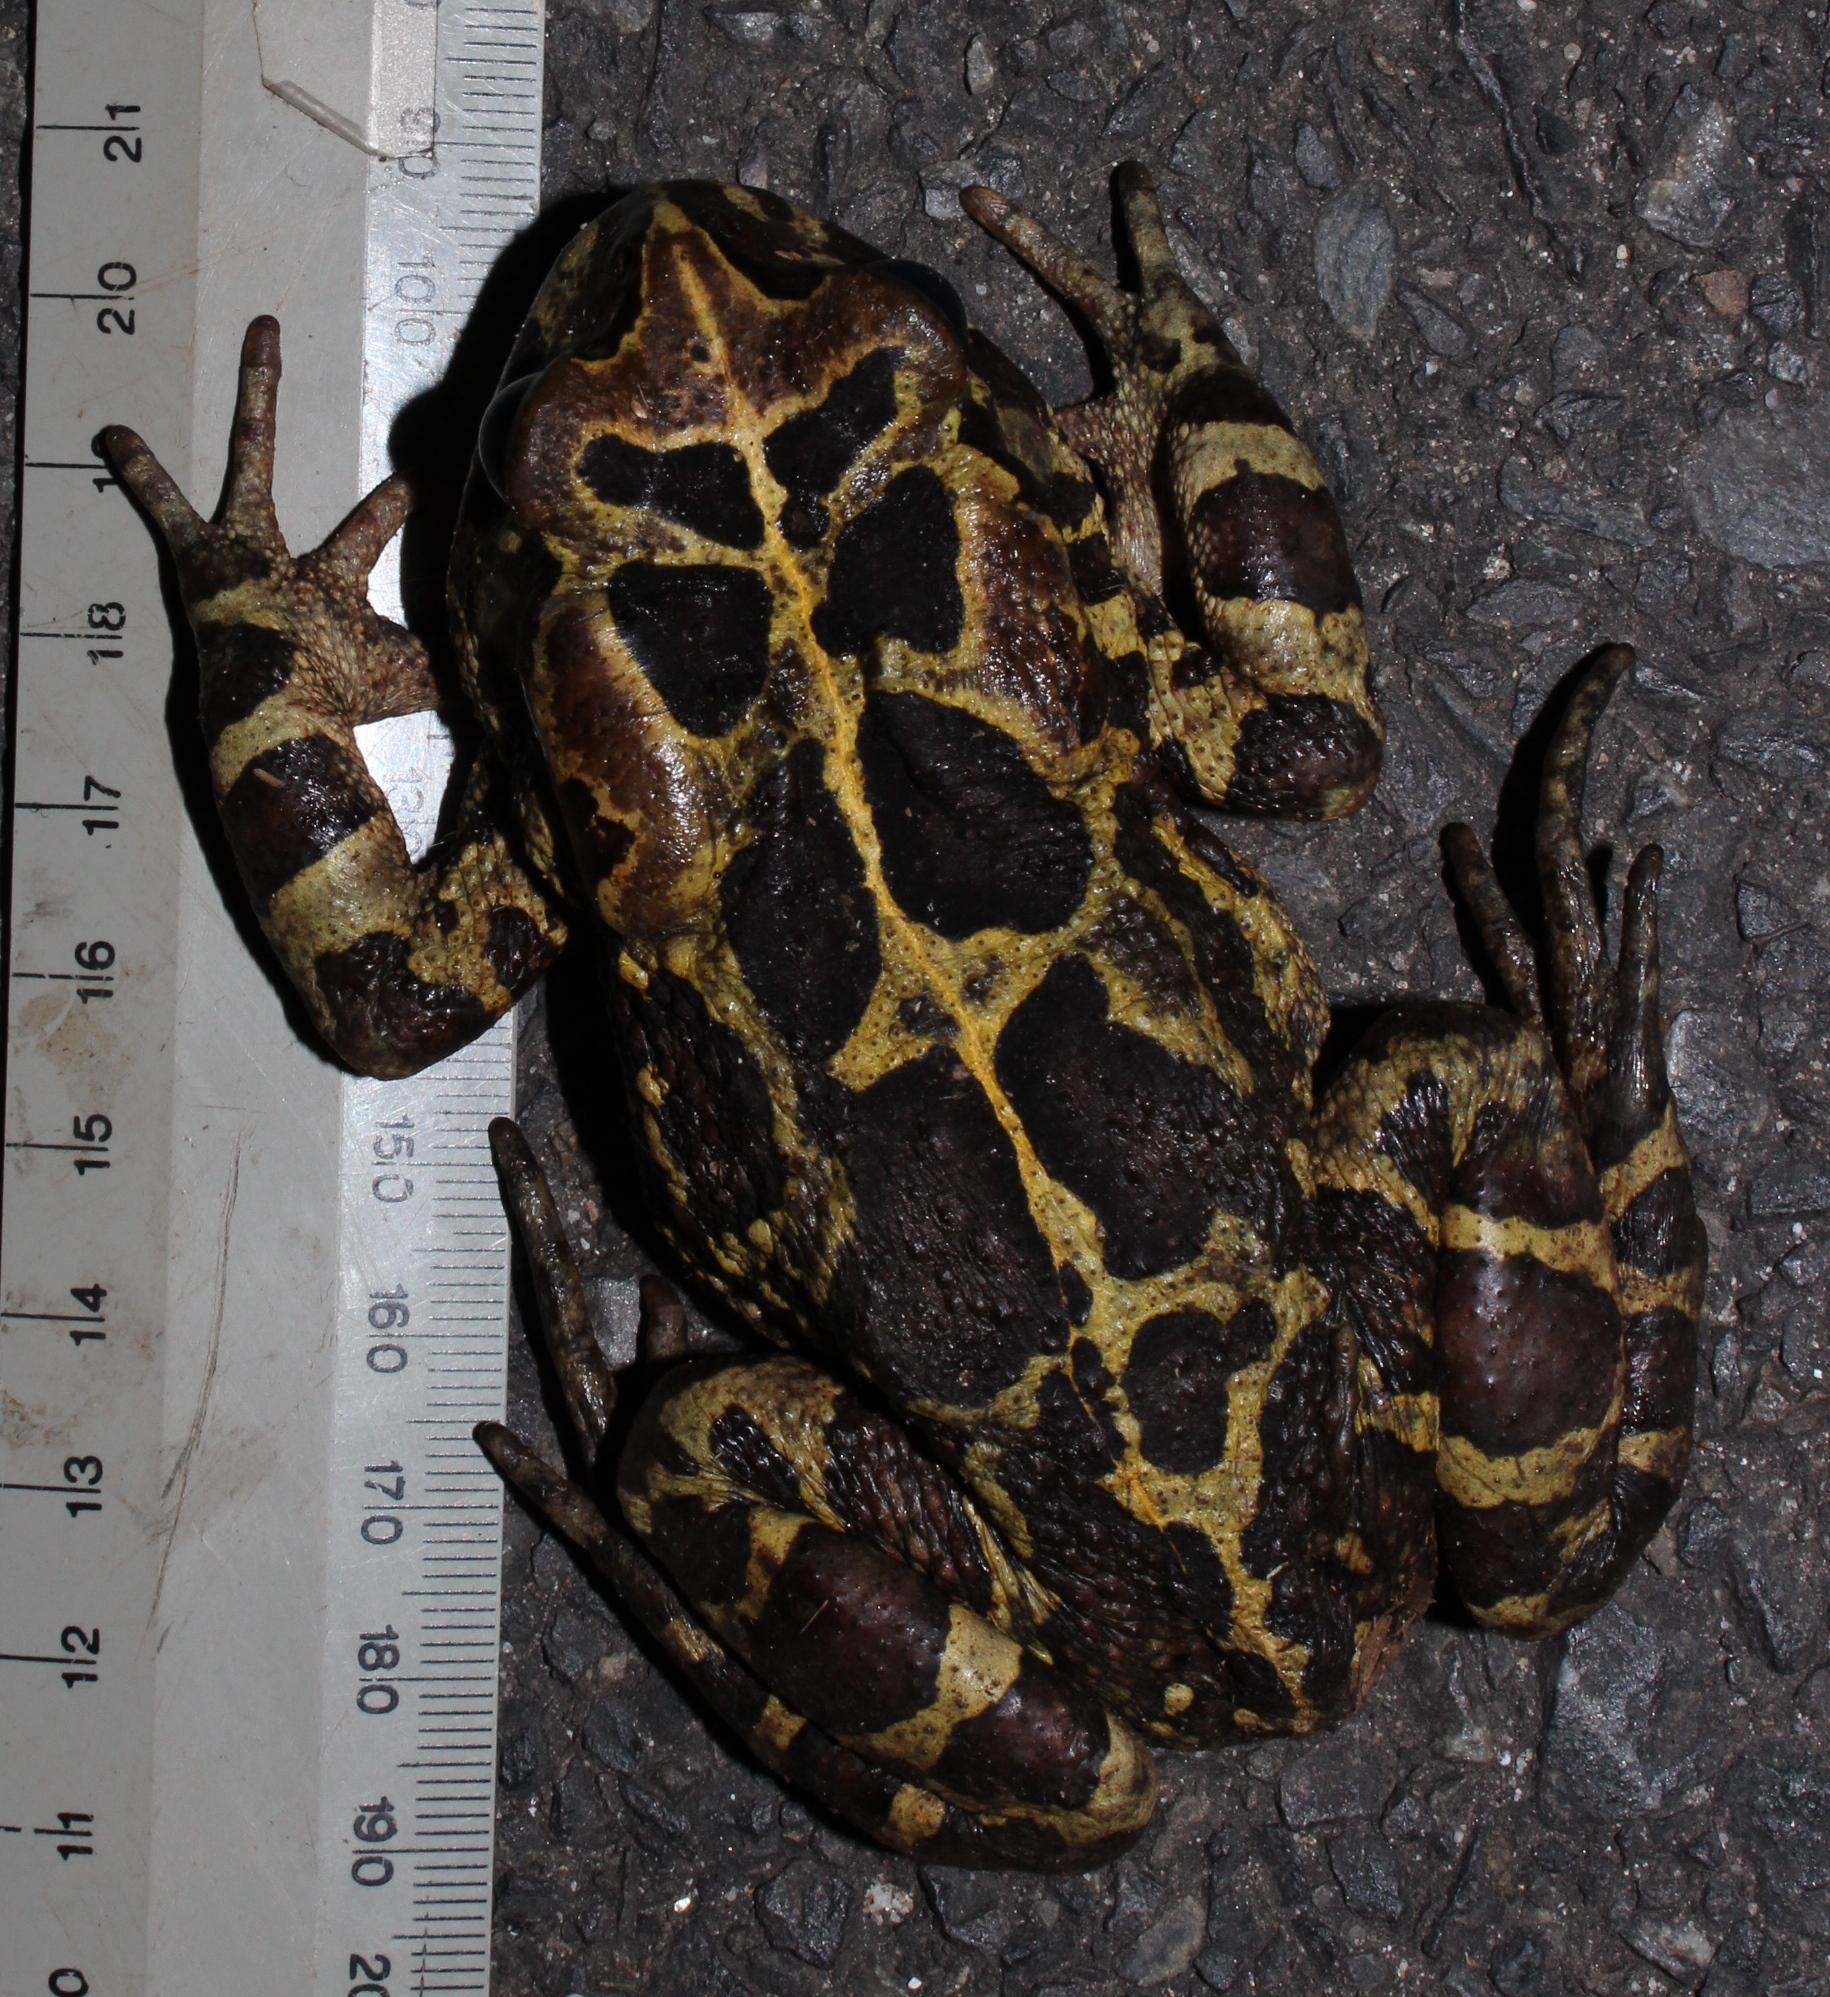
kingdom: Animalia
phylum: Chordata
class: Amphibia
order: Anura
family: Bufonidae
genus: Sclerophrys
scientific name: Sclerophrys pantherina
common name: Panther toad
